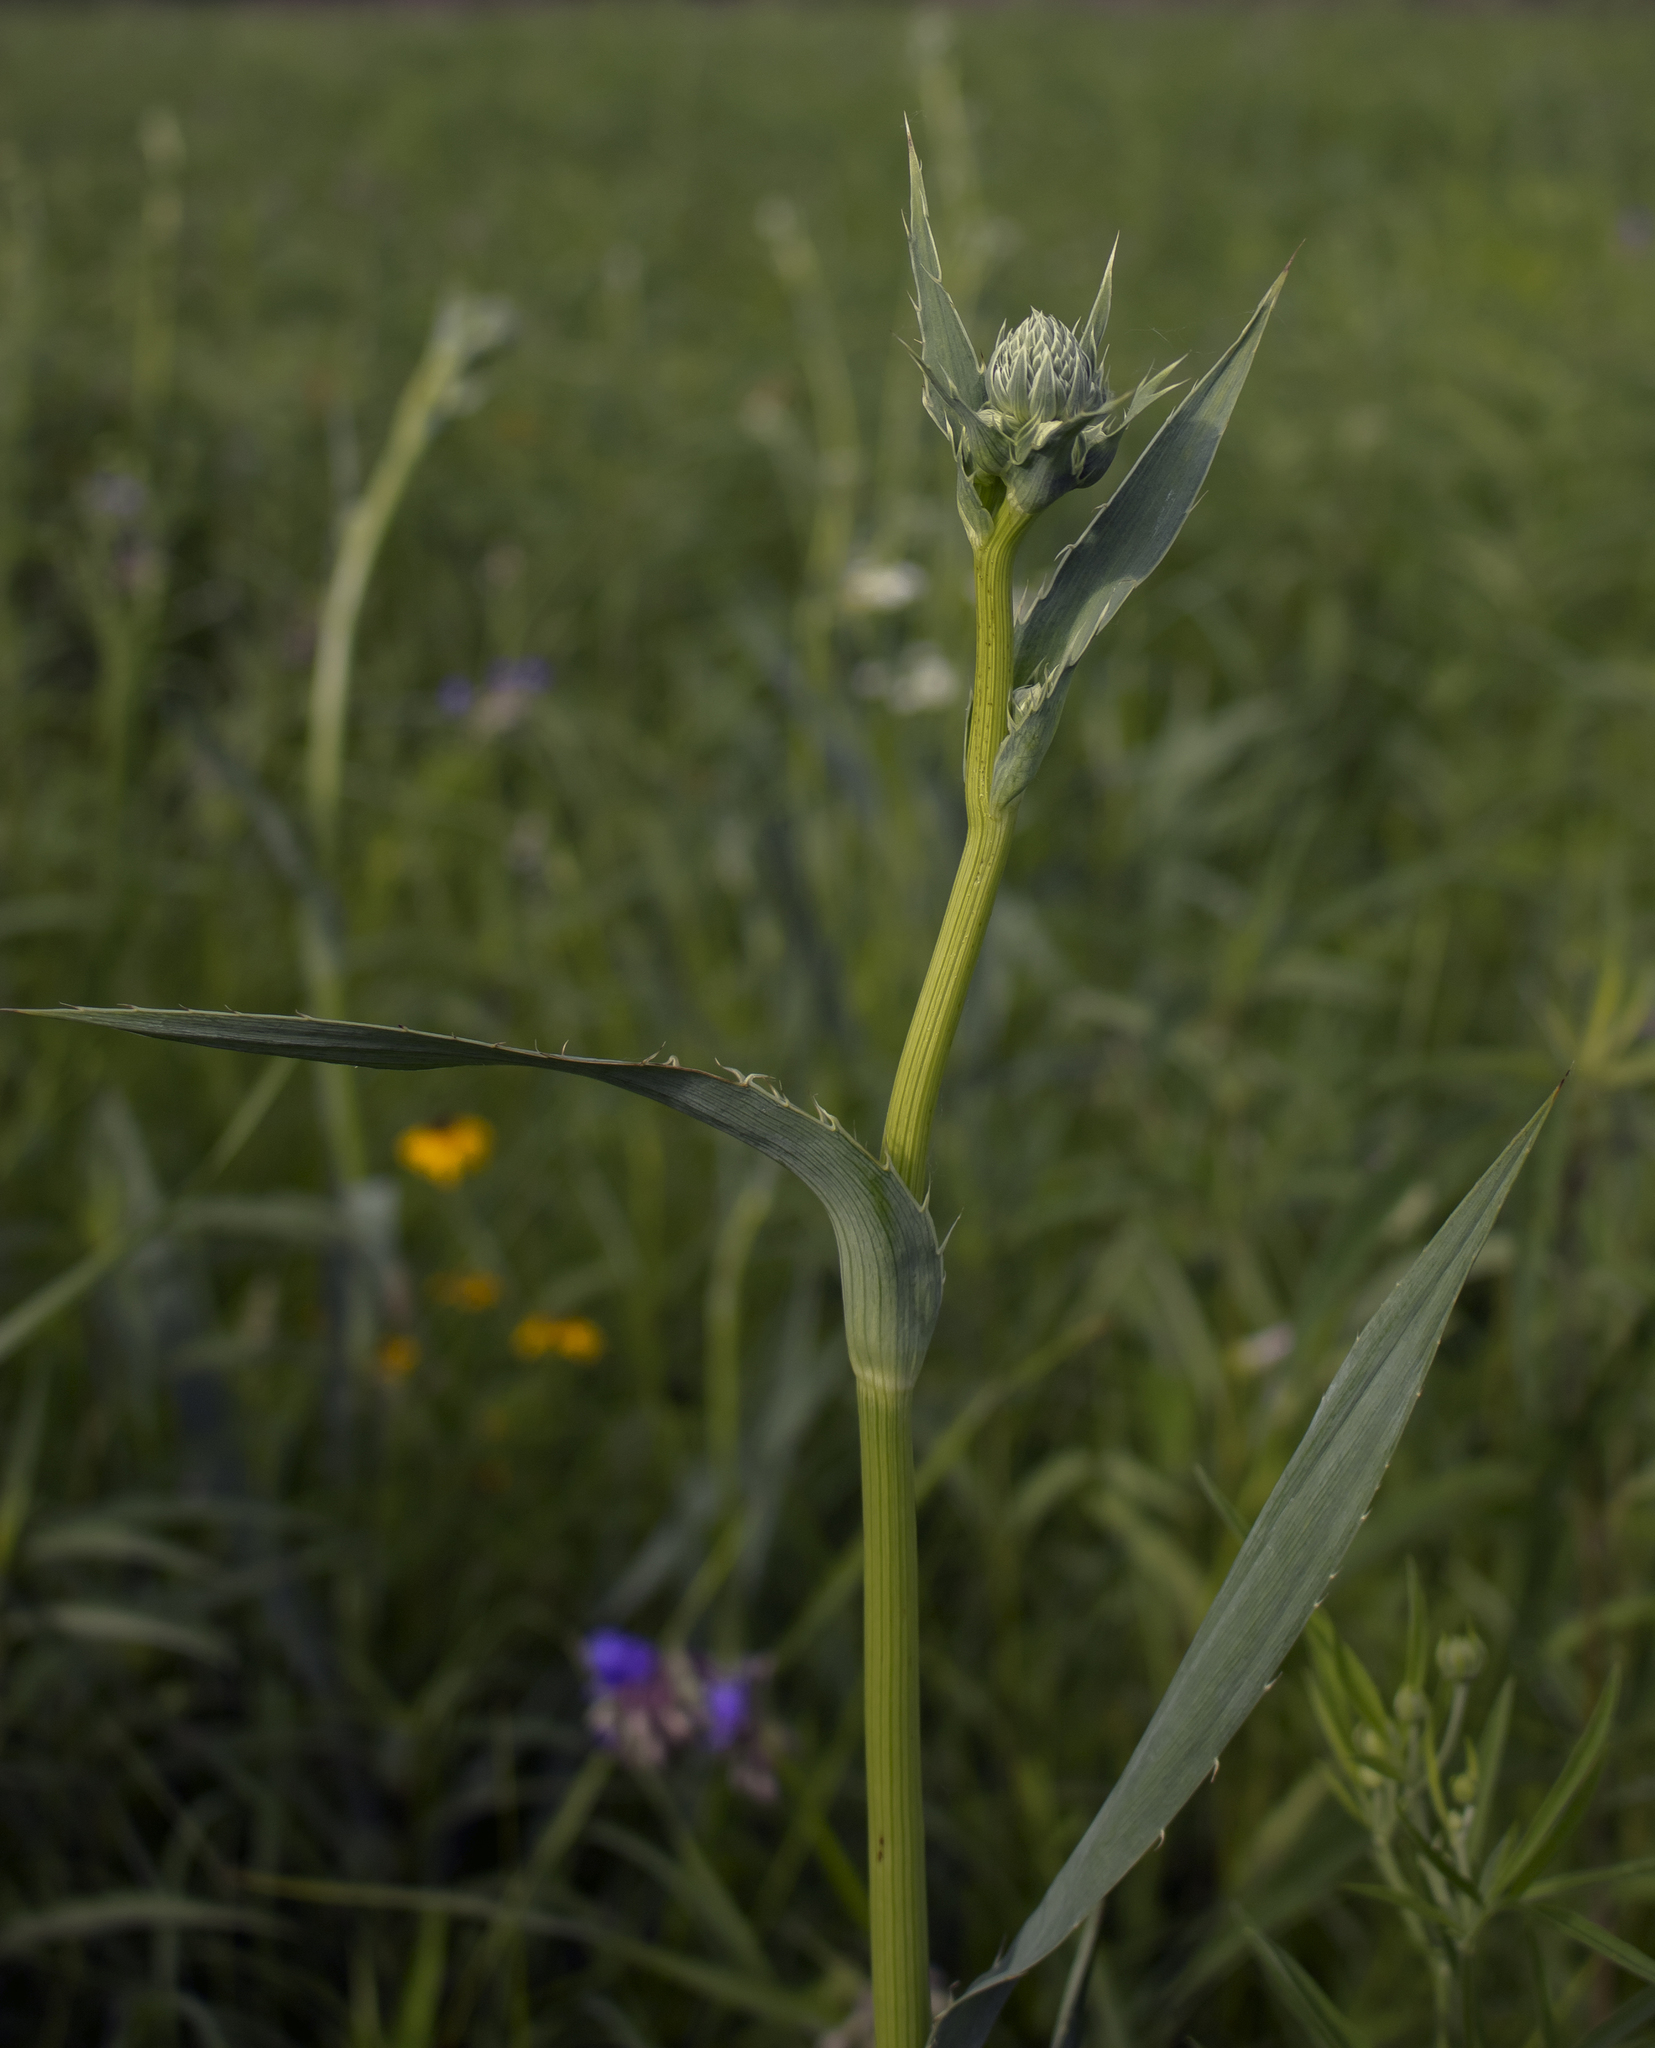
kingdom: Plantae
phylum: Tracheophyta
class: Magnoliopsida
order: Apiales
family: Apiaceae
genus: Eryngium
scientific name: Eryngium yuccifolium
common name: Button eryngo
